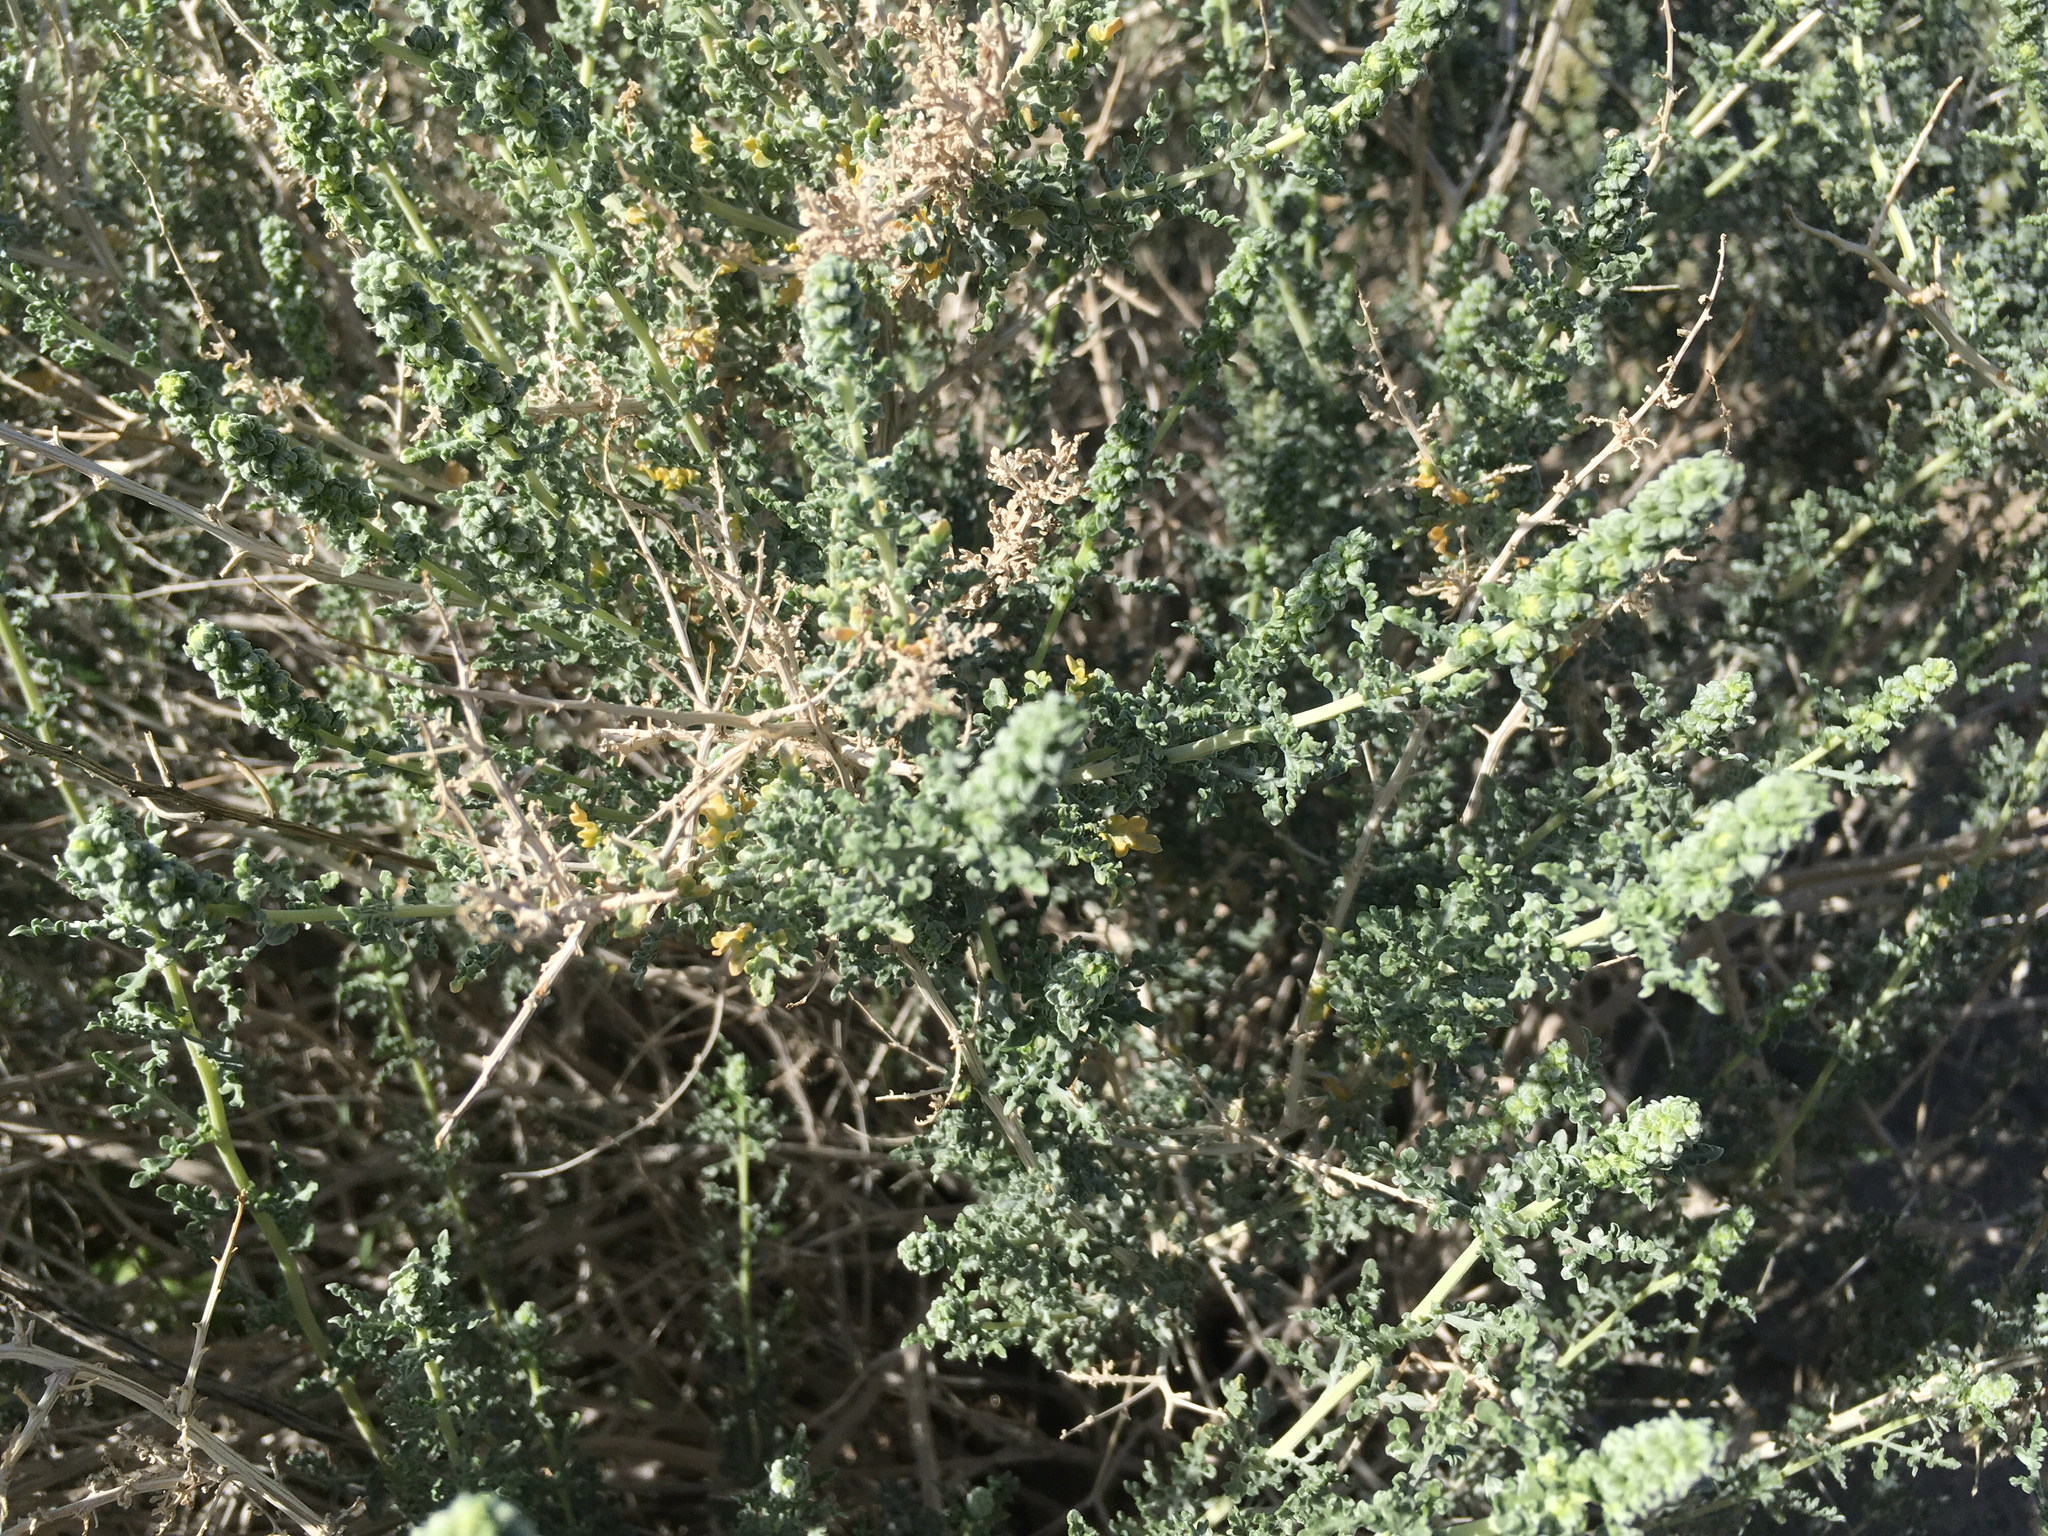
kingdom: Plantae
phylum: Tracheophyta
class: Magnoliopsida
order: Asterales
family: Asteraceae
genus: Ambrosia
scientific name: Ambrosia dumosa
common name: Bur-sage
